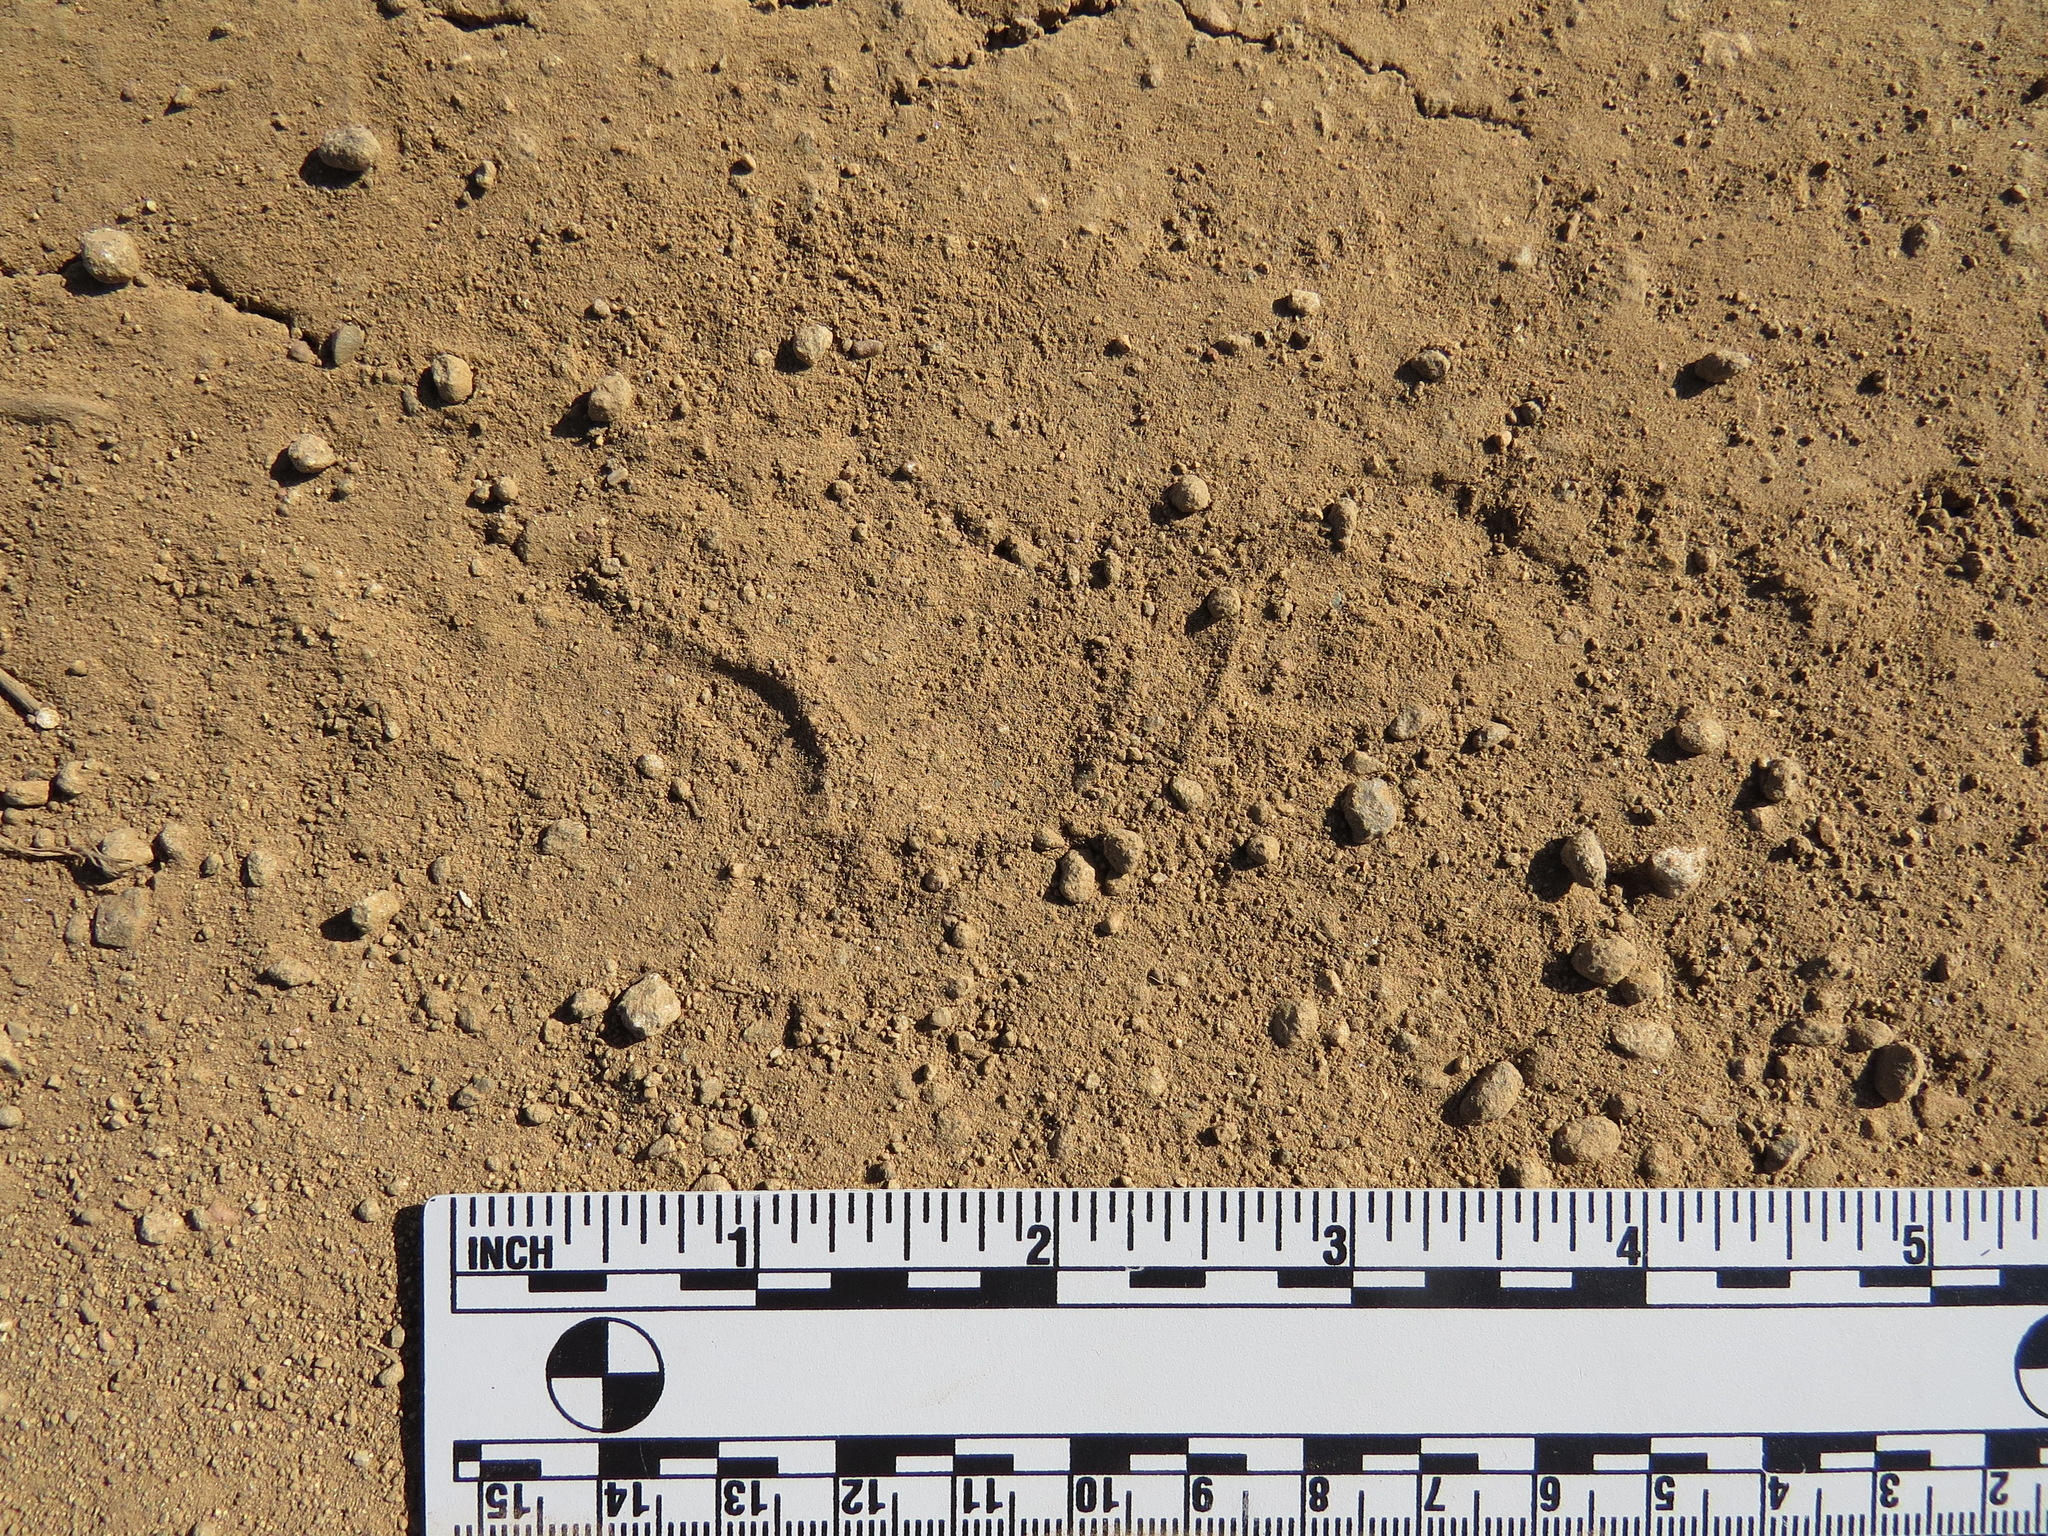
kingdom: Animalia
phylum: Chordata
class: Mammalia
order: Carnivora
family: Mustelidae
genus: Taxidea
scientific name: Taxidea taxus
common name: American badger
